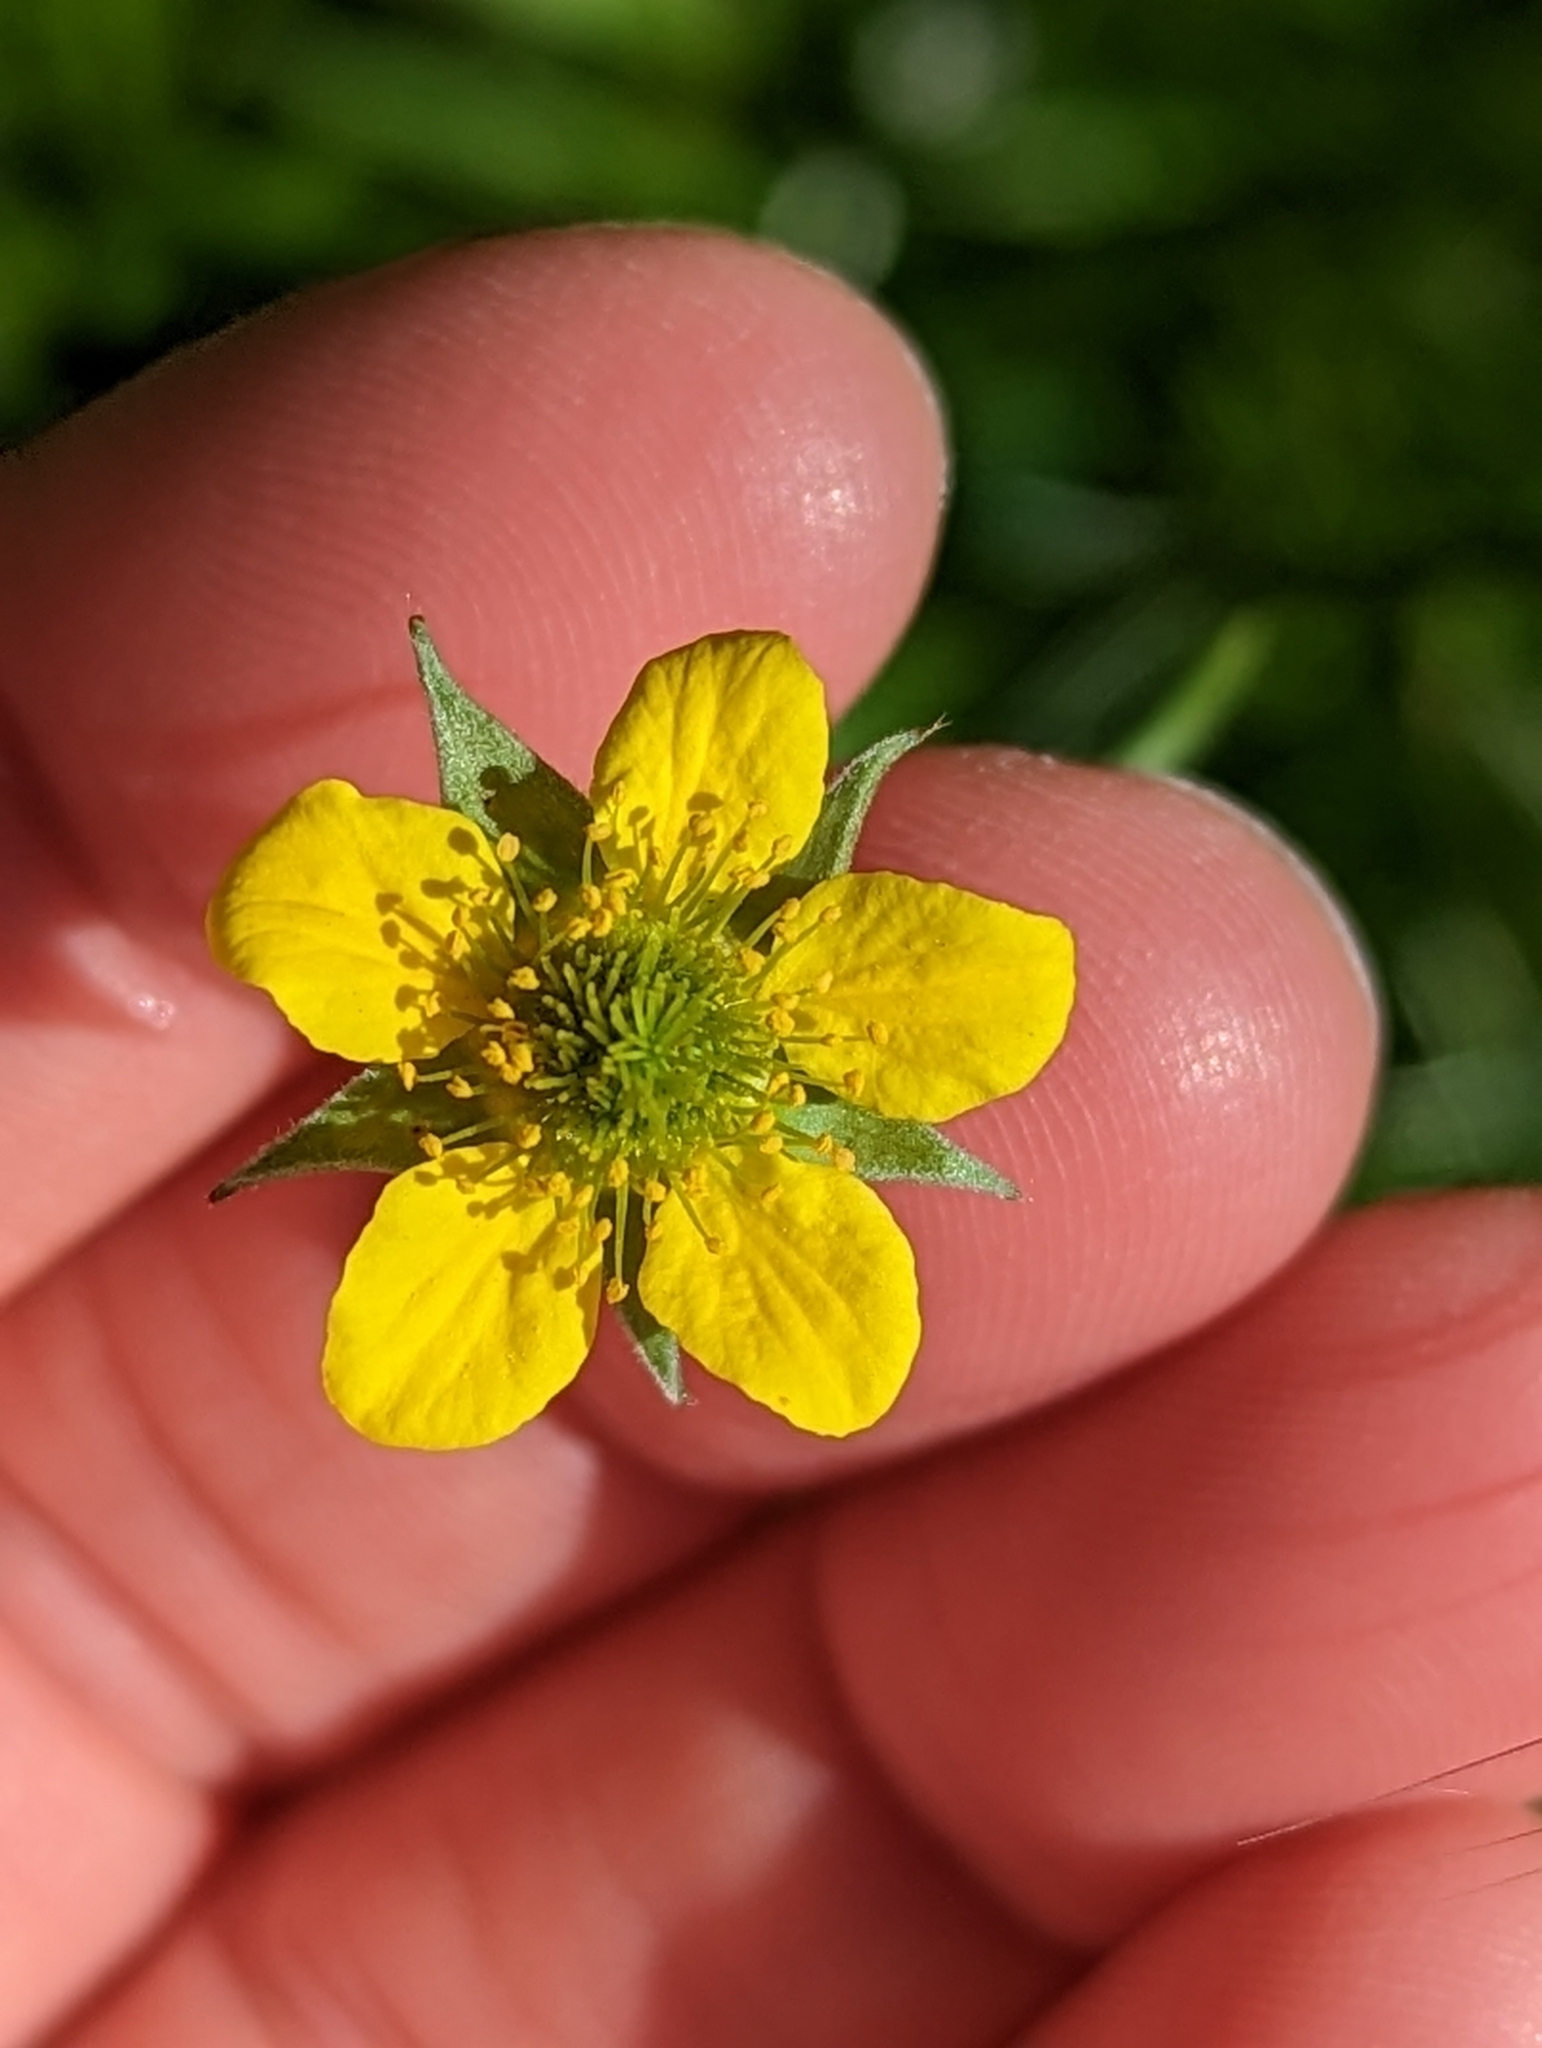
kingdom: Plantae
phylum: Tracheophyta
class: Magnoliopsida
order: Rosales
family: Rosaceae
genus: Geum
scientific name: Geum urbanum
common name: Wood avens
